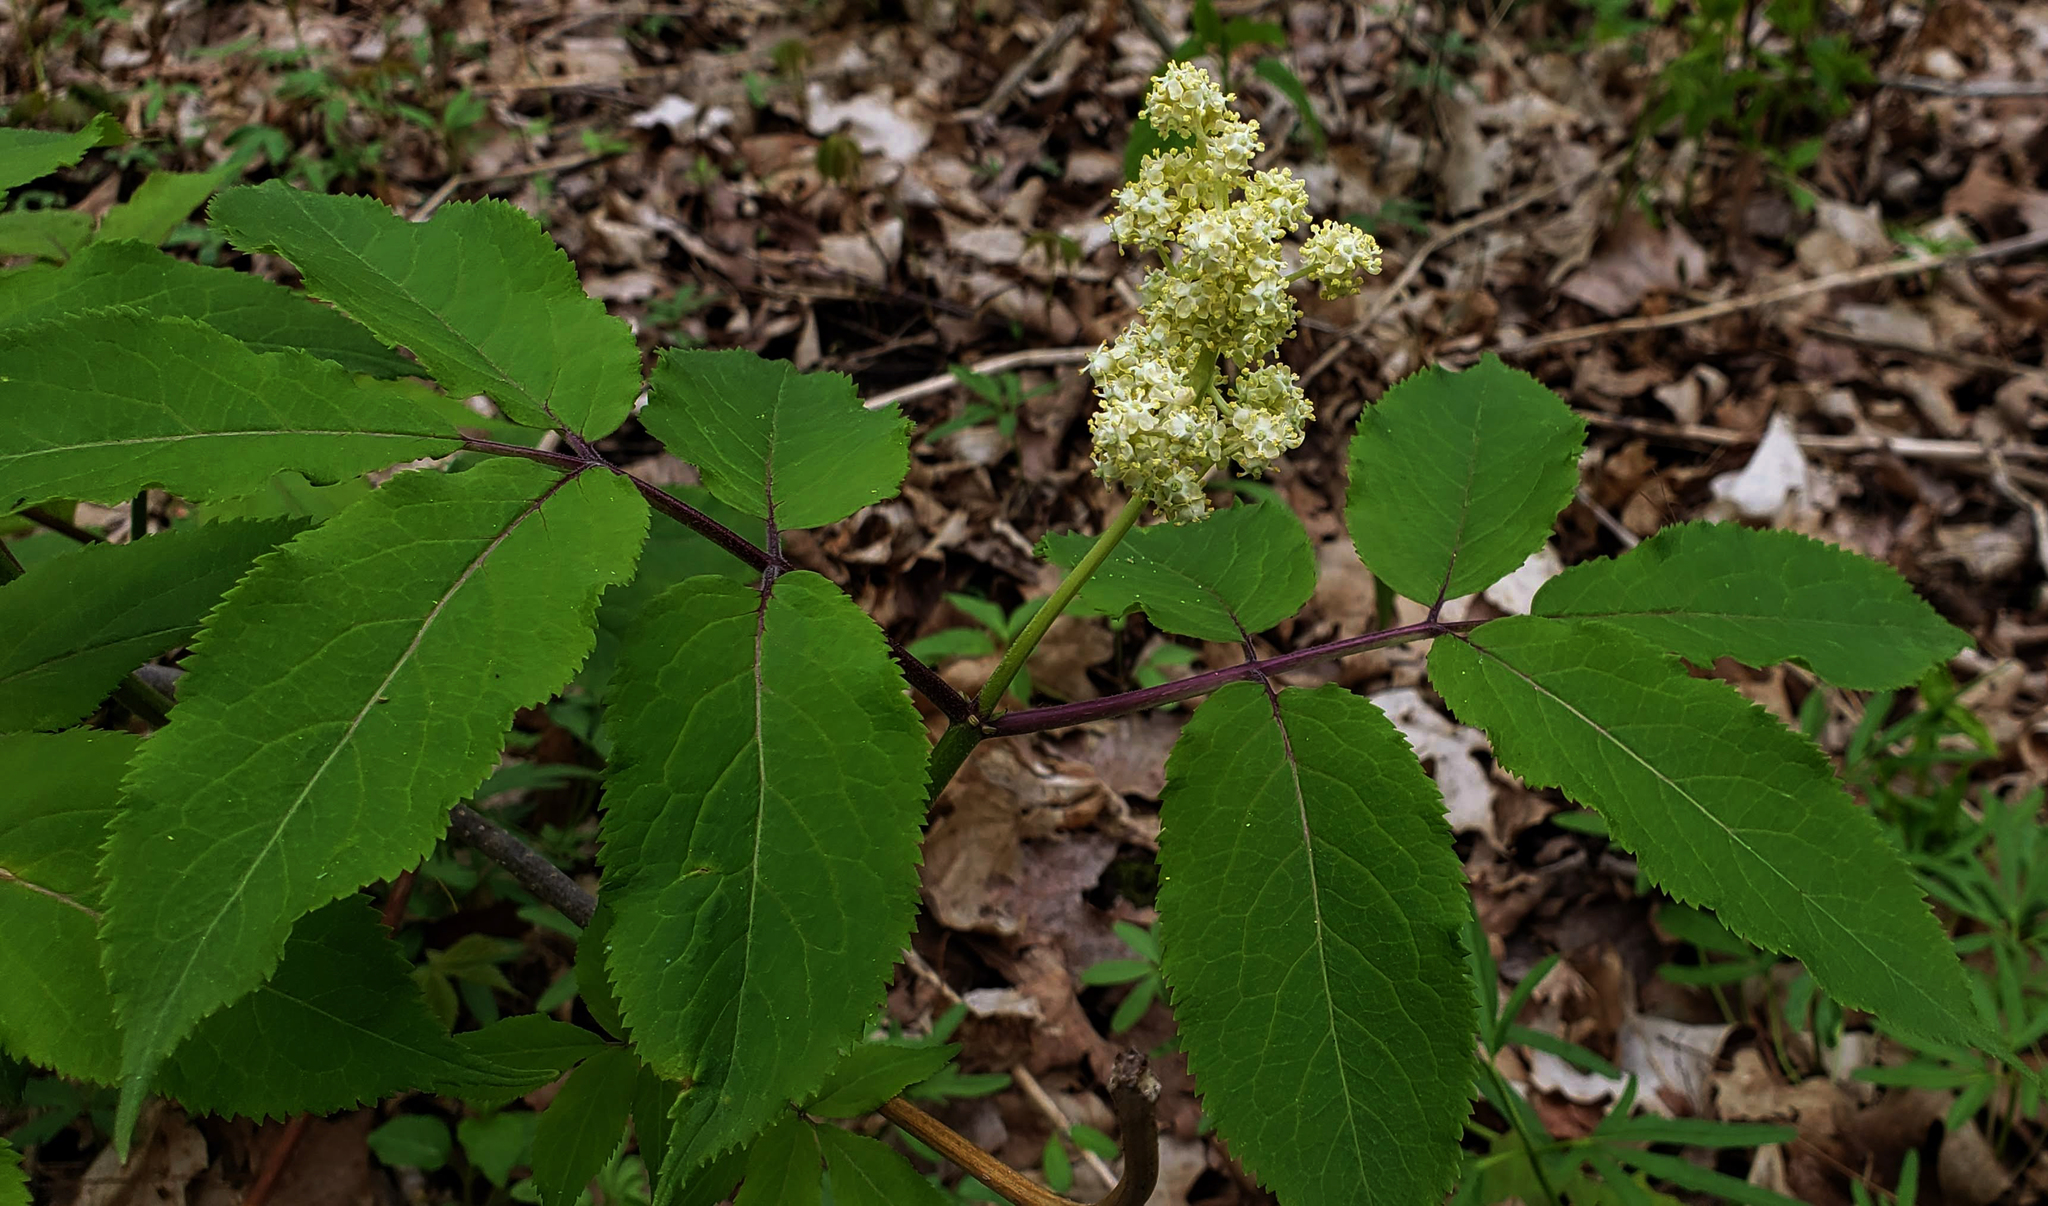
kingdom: Plantae
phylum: Tracheophyta
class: Magnoliopsida
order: Dipsacales
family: Viburnaceae
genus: Sambucus
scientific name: Sambucus racemosa
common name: Red-berried elder
